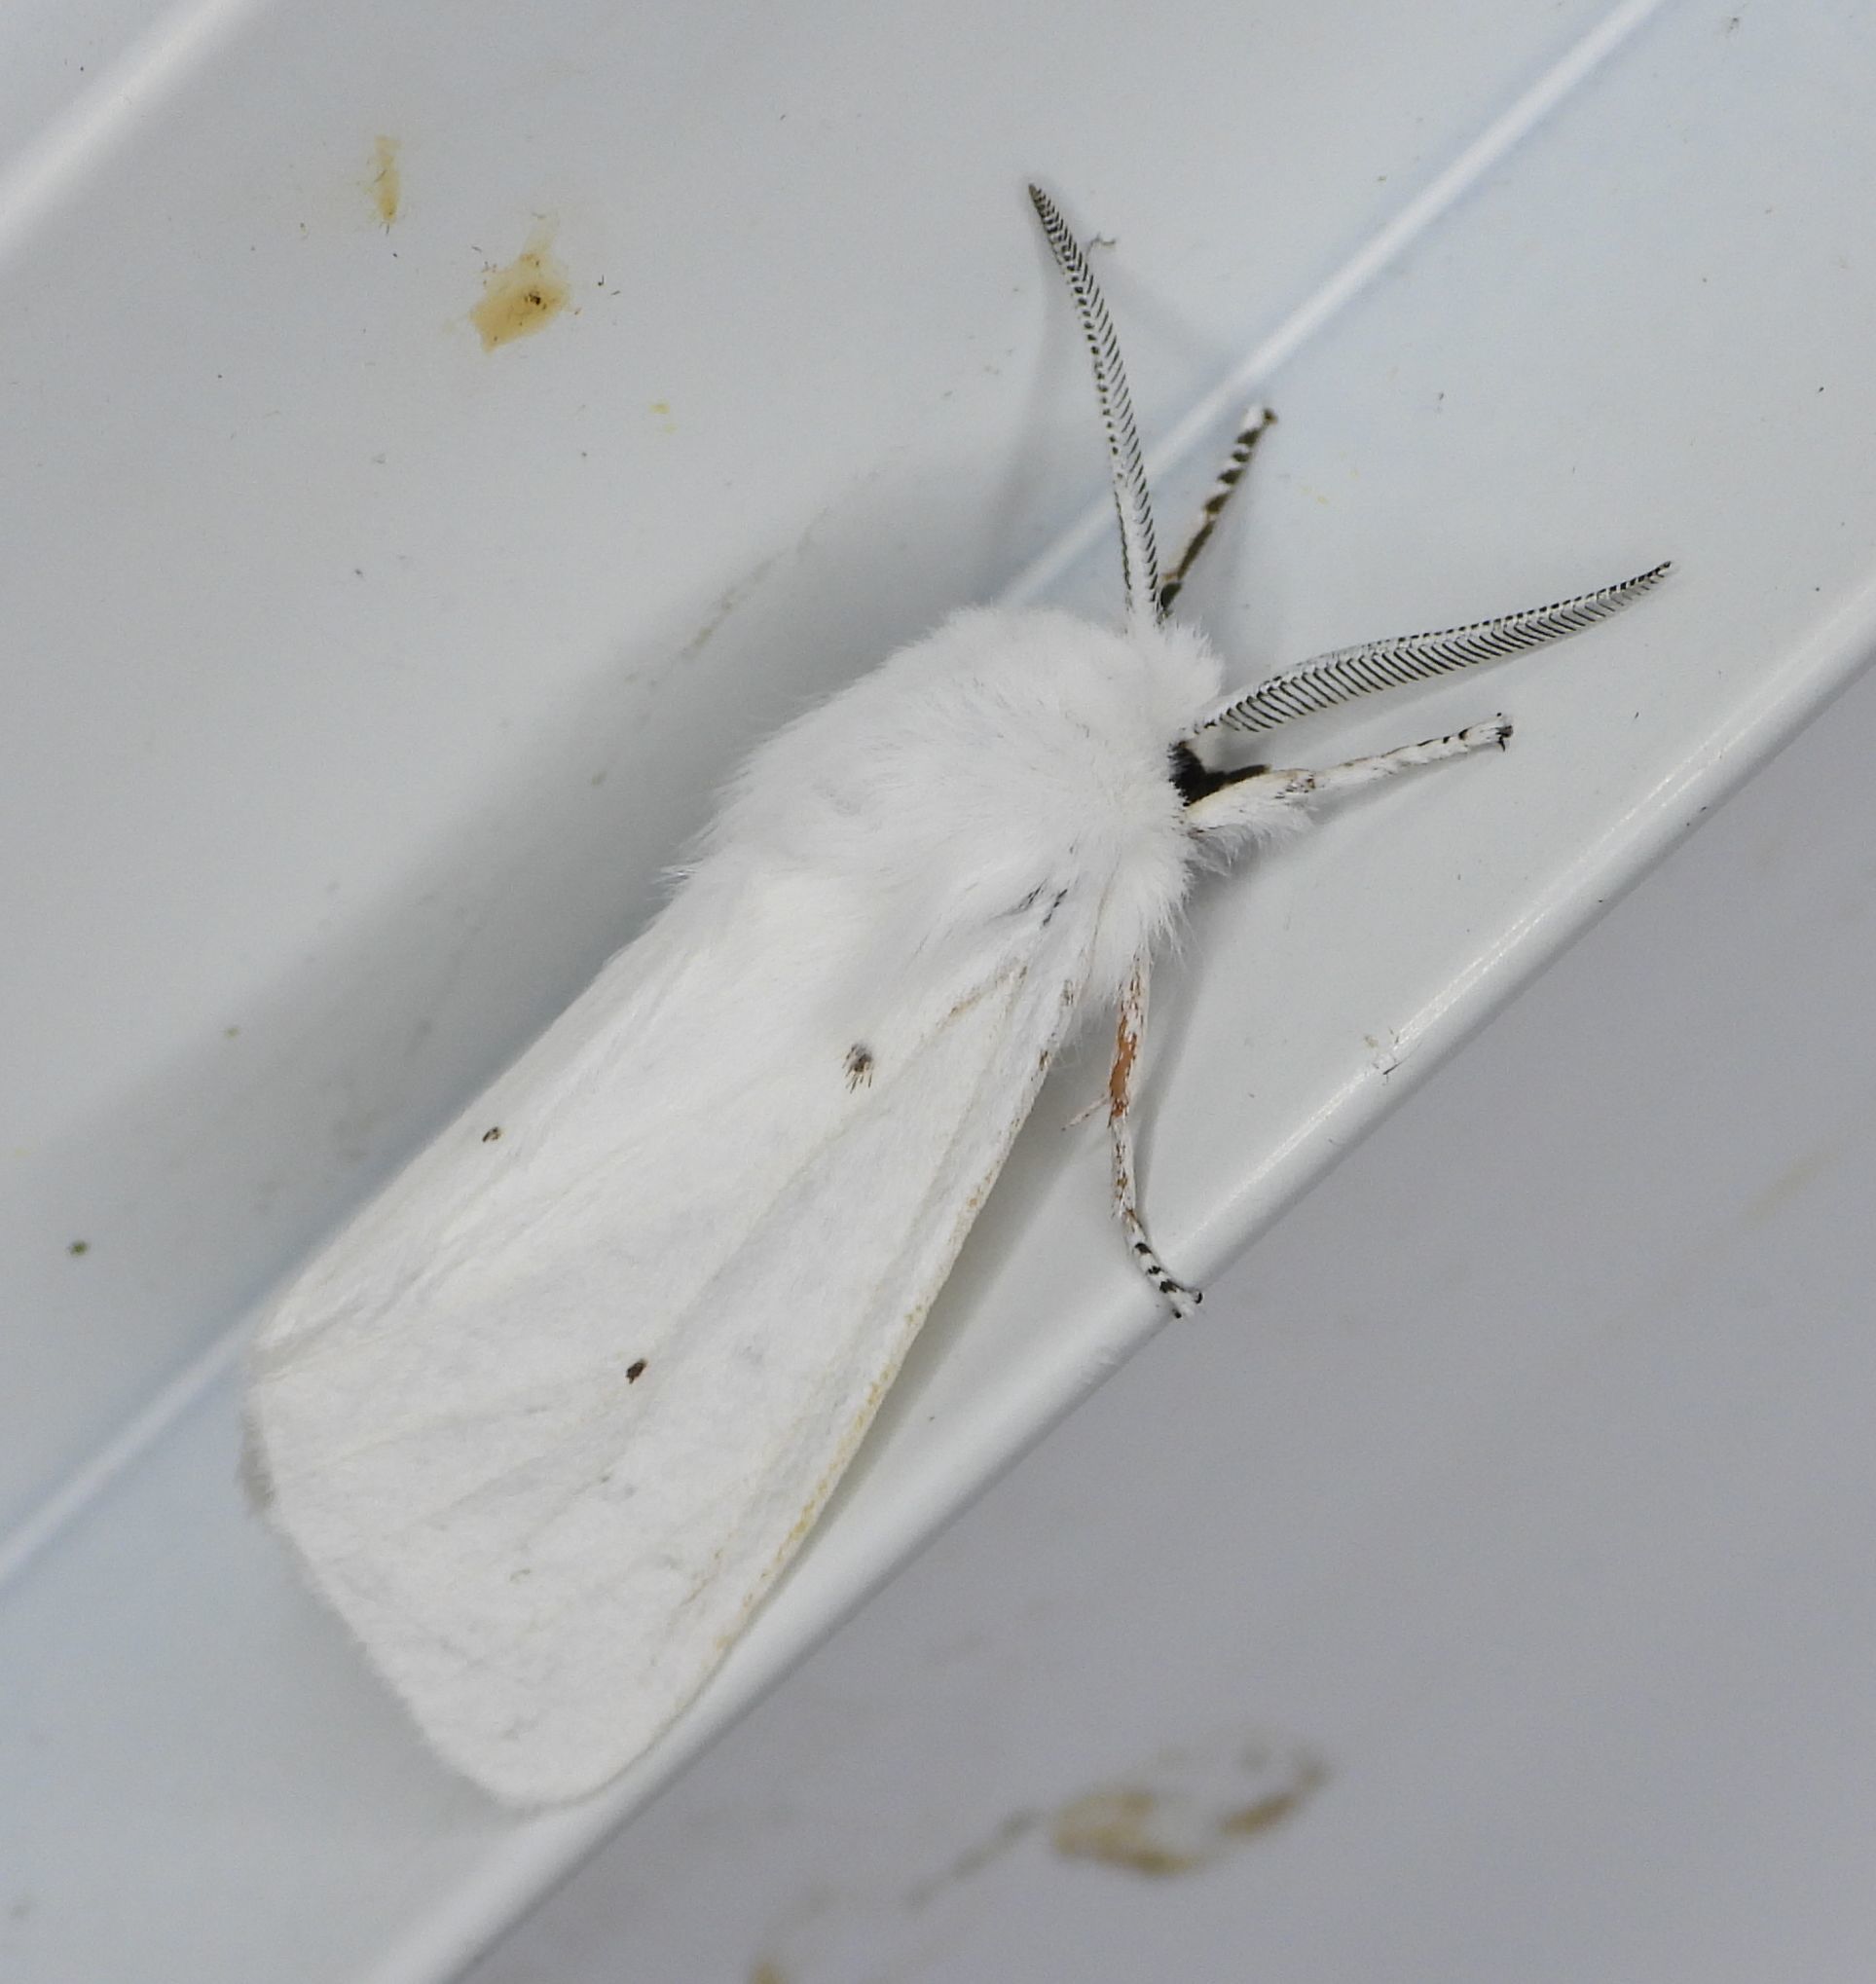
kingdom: Animalia
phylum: Arthropoda
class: Insecta
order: Lepidoptera
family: Erebidae
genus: Spilosoma
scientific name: Spilosoma virginica
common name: Virginia tiger moth
